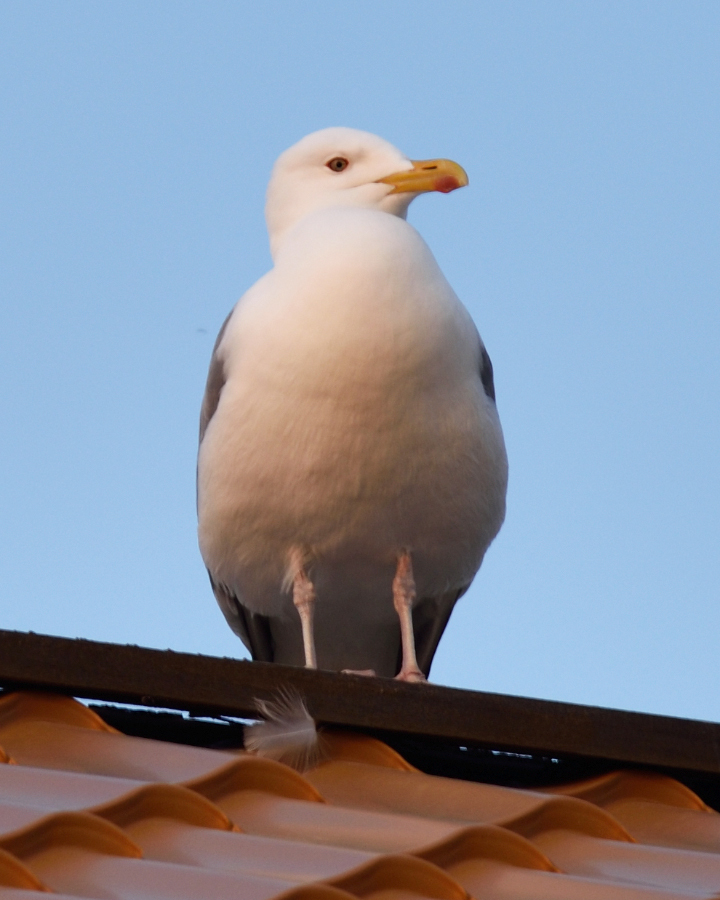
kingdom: Animalia
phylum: Chordata
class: Aves
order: Charadriiformes
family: Laridae
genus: Larus
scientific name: Larus vegae
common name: Vega gull
